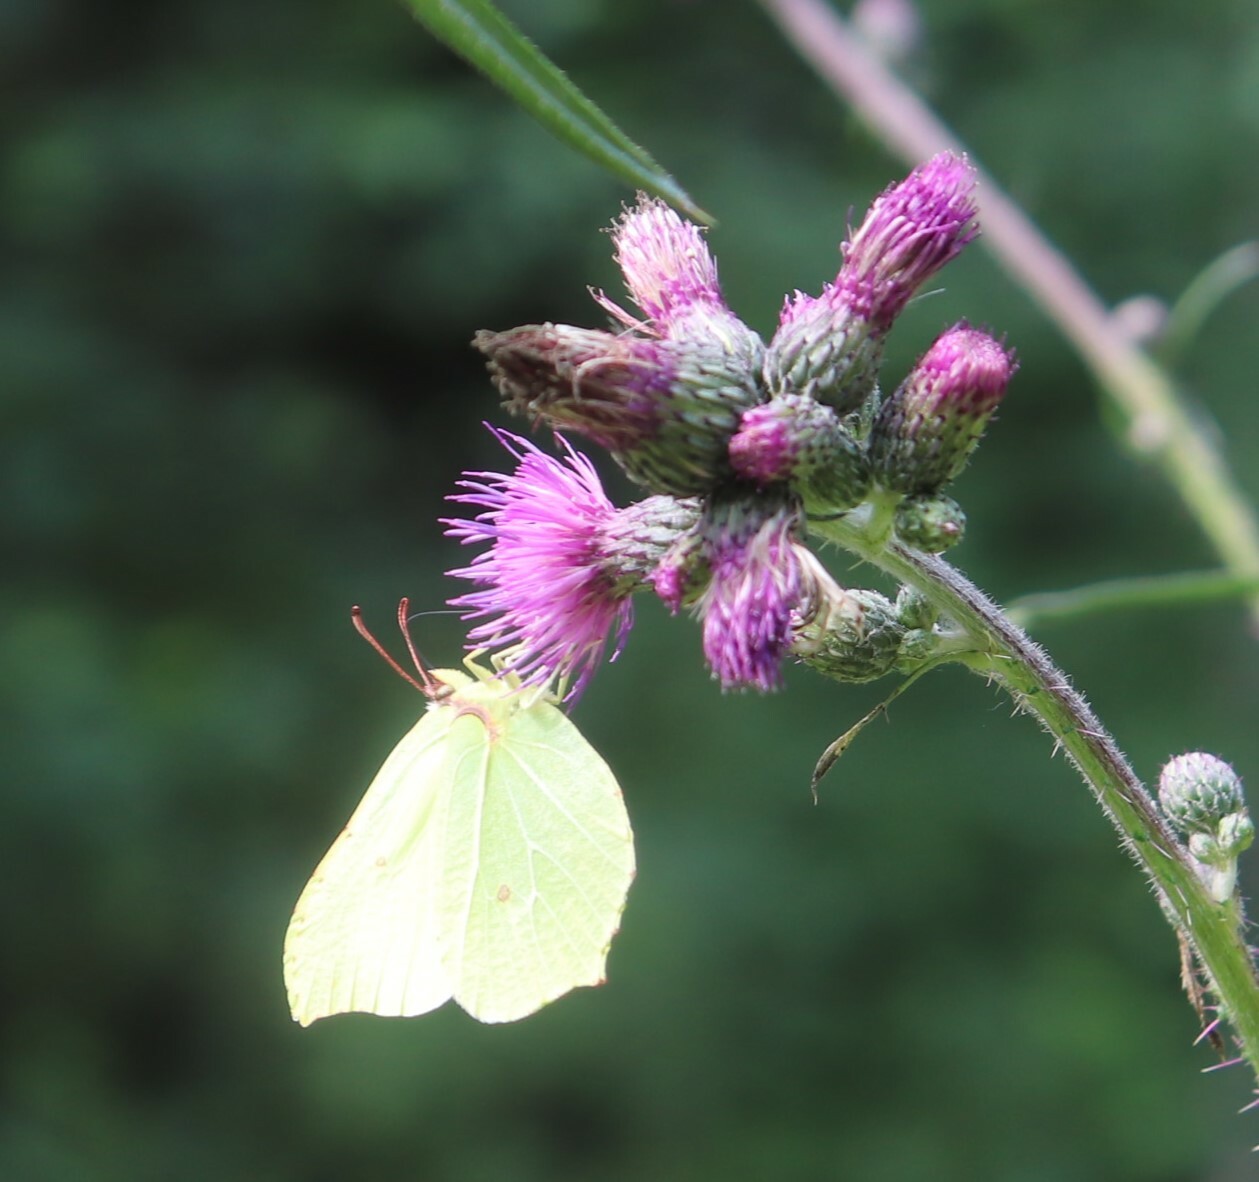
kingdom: Animalia
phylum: Arthropoda
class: Insecta
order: Lepidoptera
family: Pieridae
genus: Gonepteryx
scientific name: Gonepteryx rhamni
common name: Brimstone
